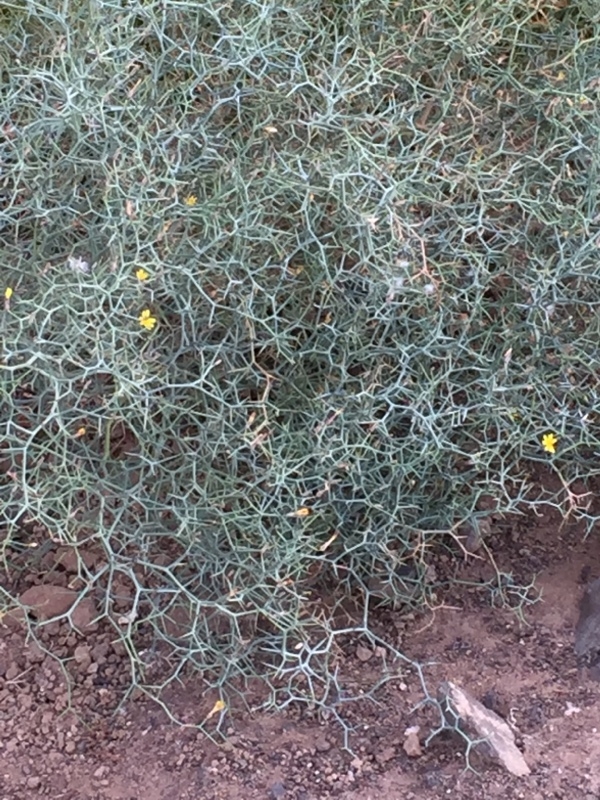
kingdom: Plantae
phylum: Tracheophyta
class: Magnoliopsida
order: Asterales
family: Asteraceae
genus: Launaea
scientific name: Launaea arborescens
